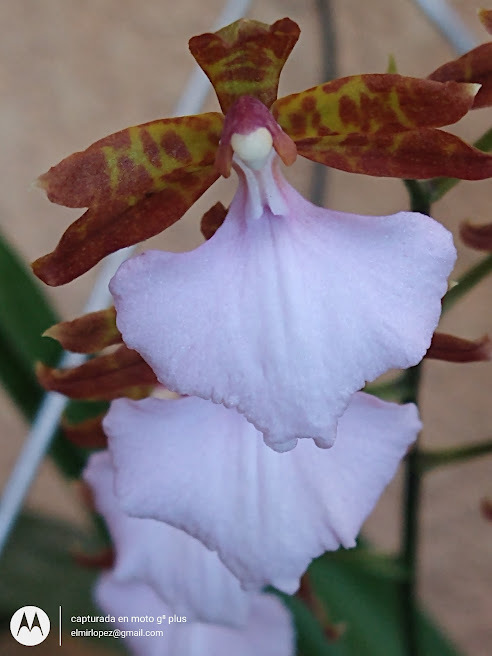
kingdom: Plantae
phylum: Tracheophyta
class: Liliopsida
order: Asparagales
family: Orchidaceae
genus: Rhynchostele
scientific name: Rhynchostele bictoniensis
